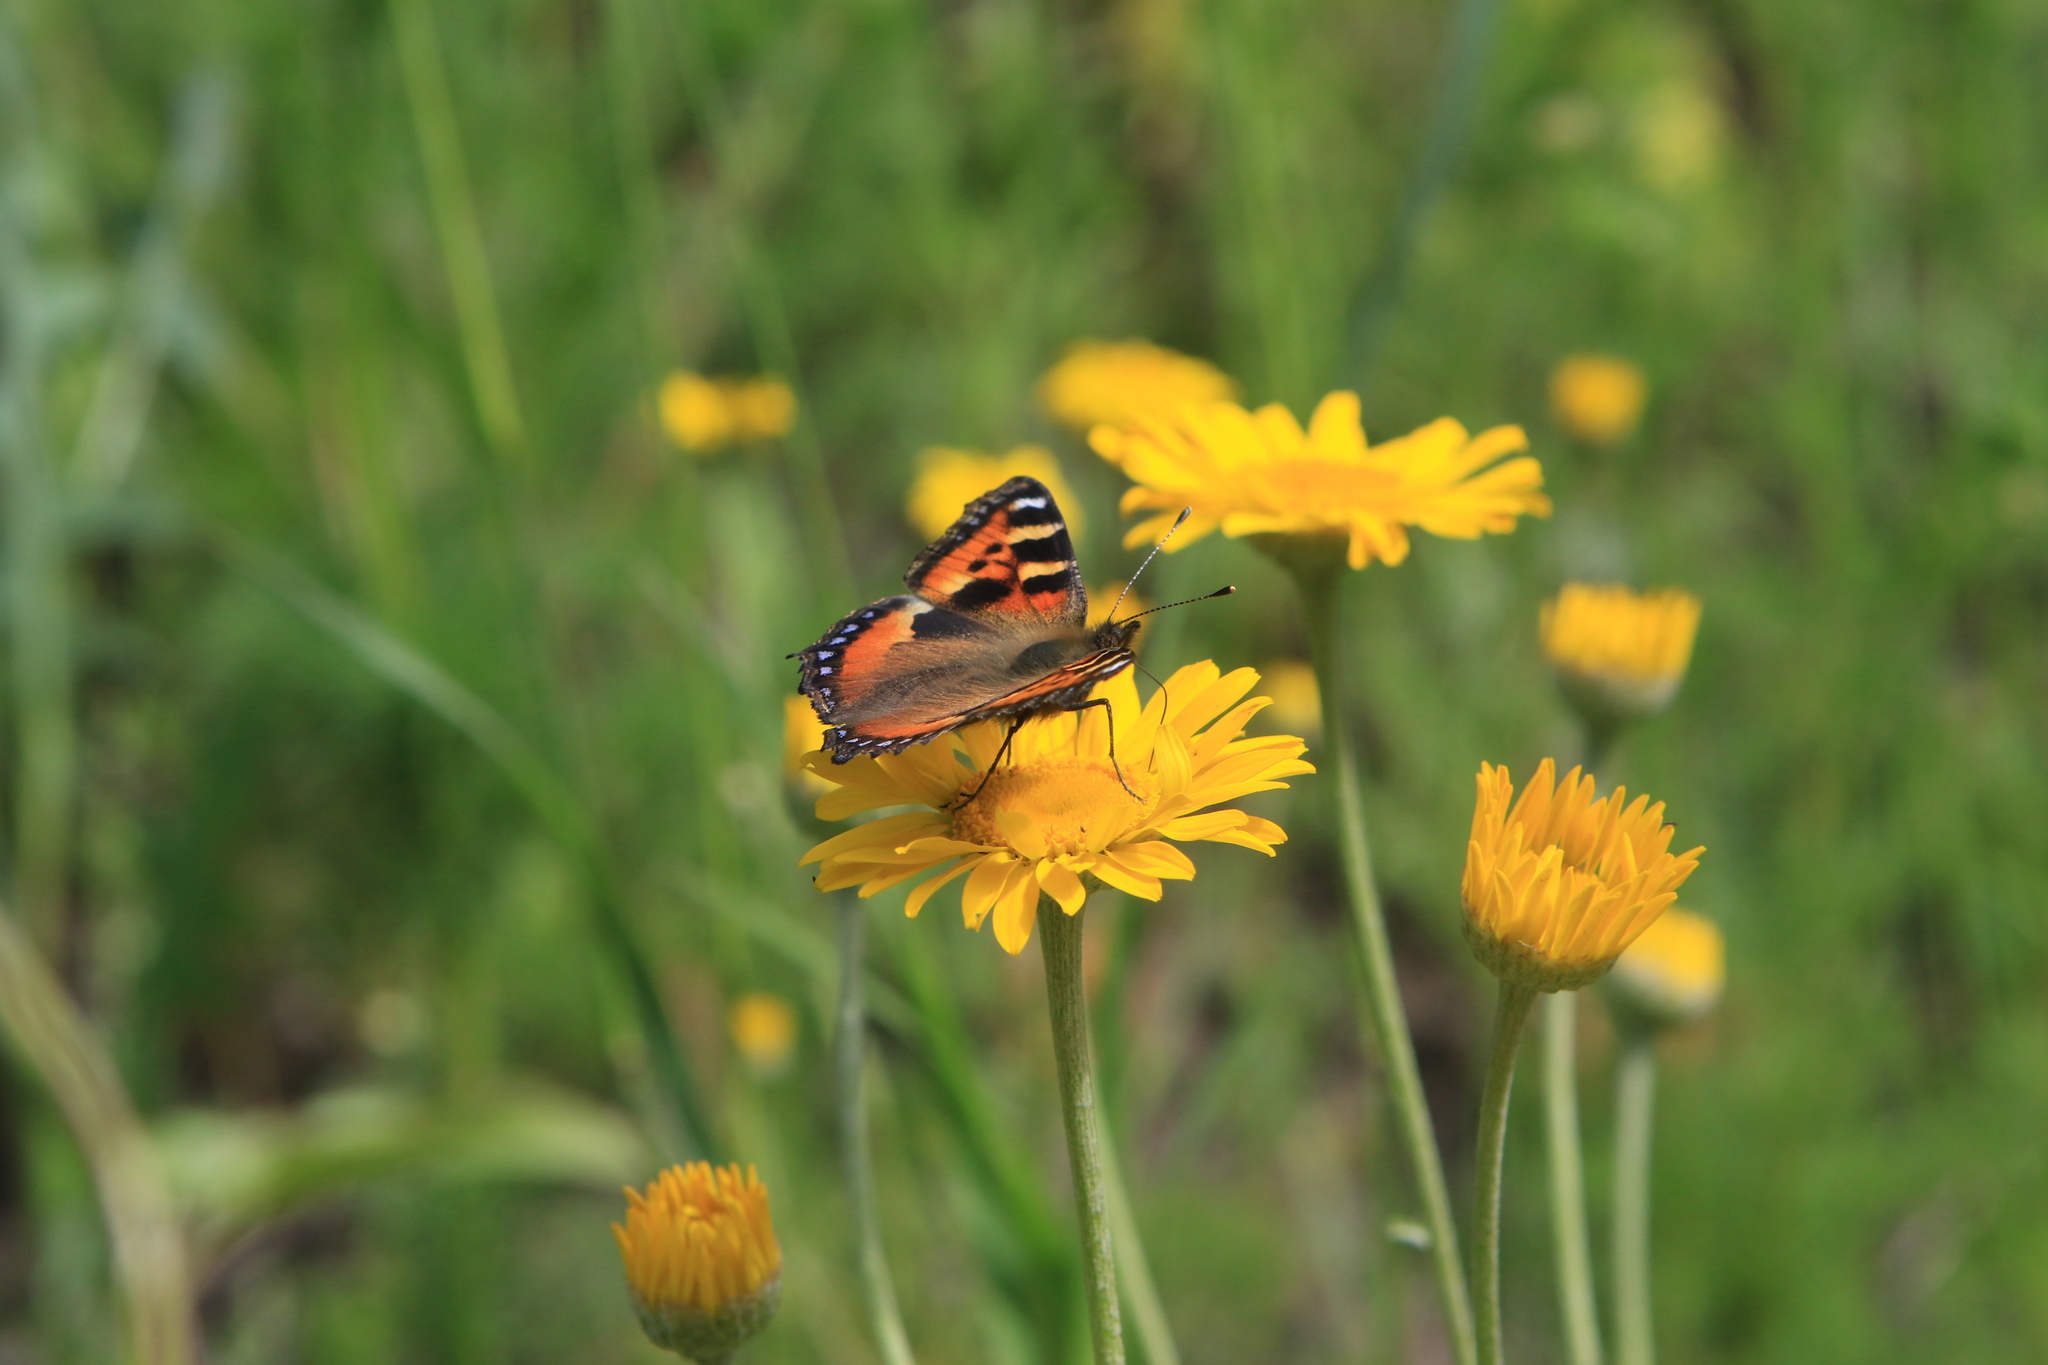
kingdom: Plantae
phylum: Tracheophyta
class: Magnoliopsida
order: Asterales
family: Asteraceae
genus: Cota
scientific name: Cota tinctoria
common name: Golden chamomile
